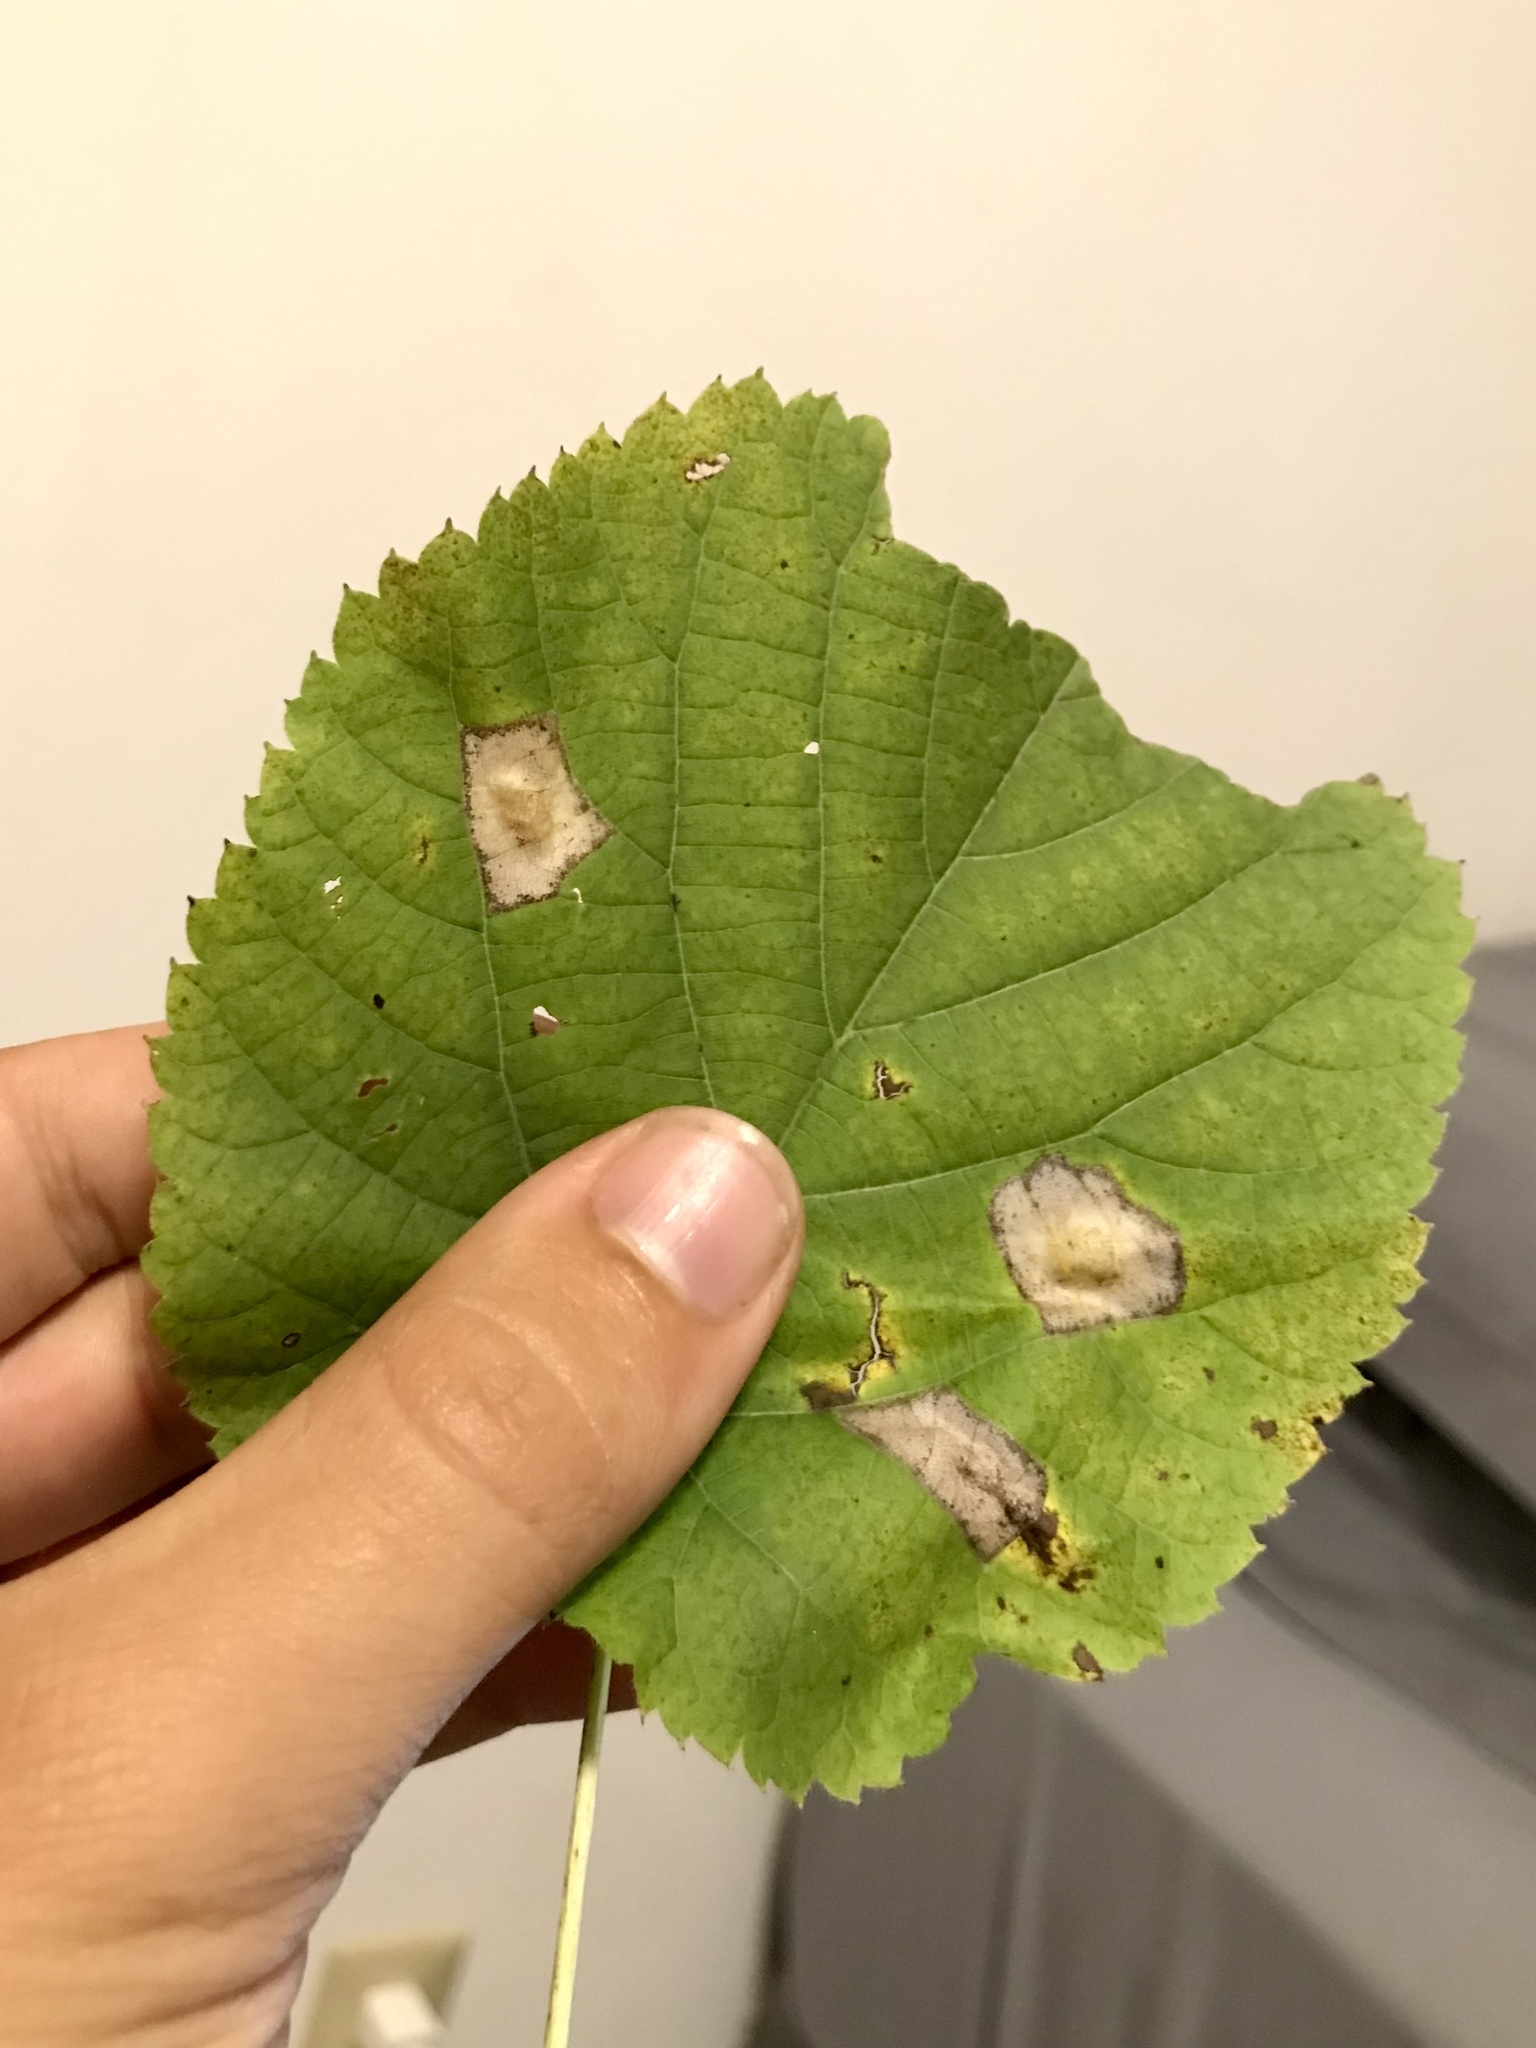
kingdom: Animalia
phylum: Arthropoda
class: Insecta
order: Lepidoptera
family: Gracillariidae
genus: Phyllonorycter
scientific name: Phyllonorycter lucetiella
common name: Basswood miner moth
